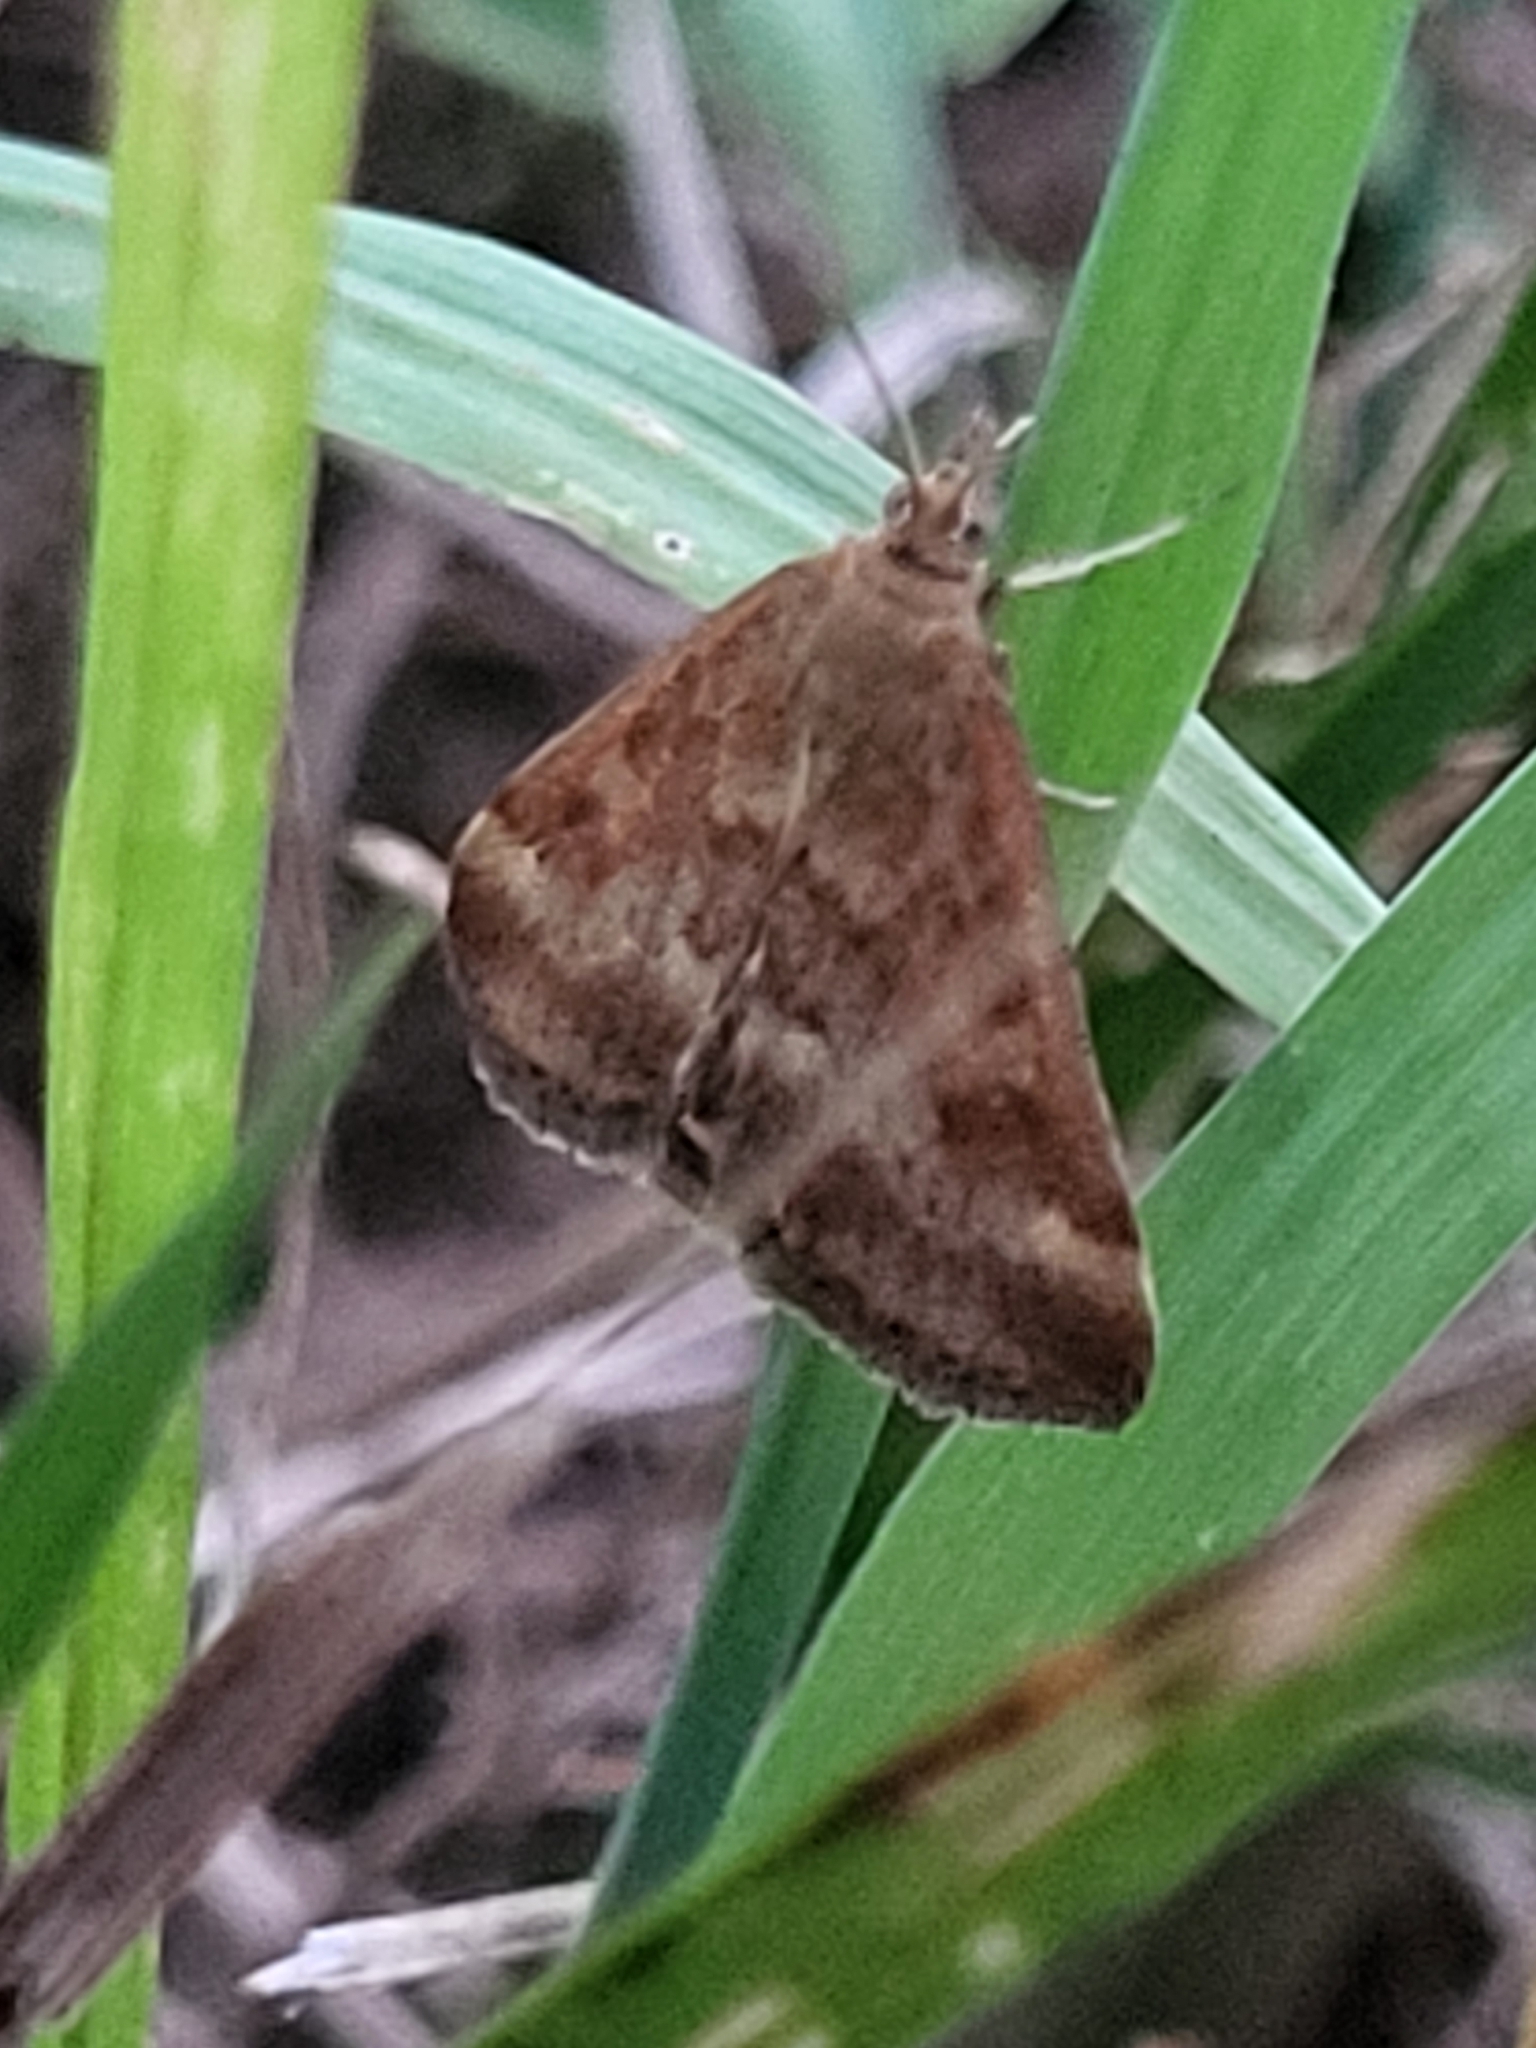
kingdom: Animalia
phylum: Arthropoda
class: Insecta
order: Lepidoptera
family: Crambidae
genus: Pyrausta
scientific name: Pyrausta despicata
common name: Straw-barred pearl
